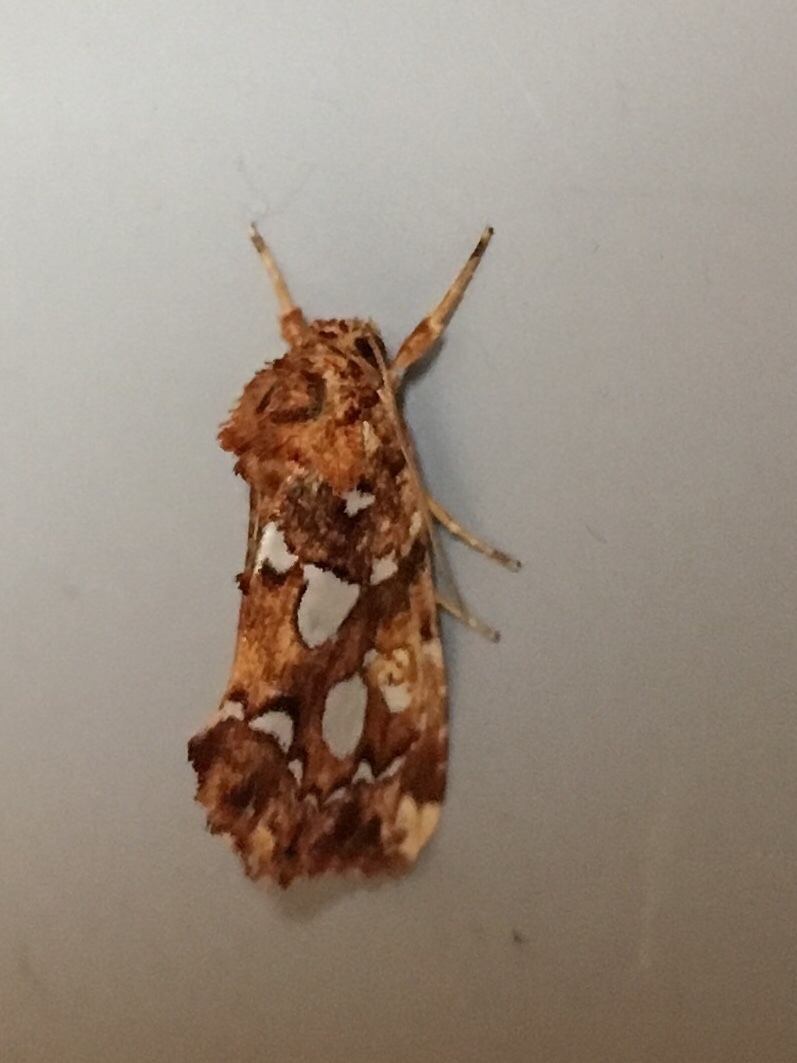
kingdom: Animalia
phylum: Arthropoda
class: Insecta
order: Lepidoptera
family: Noctuidae
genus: Callopistria
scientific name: Callopistria cordata
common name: Silver-spotted fern moth
